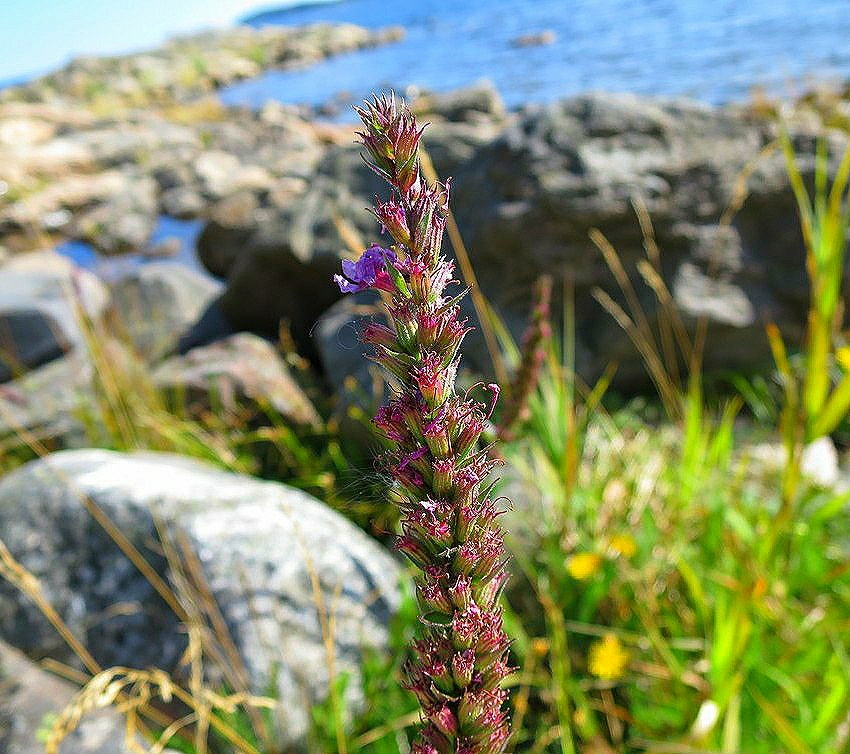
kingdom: Plantae
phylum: Tracheophyta
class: Magnoliopsida
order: Myrtales
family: Lythraceae
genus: Lythrum
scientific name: Lythrum salicaria
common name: Purple loosestrife
